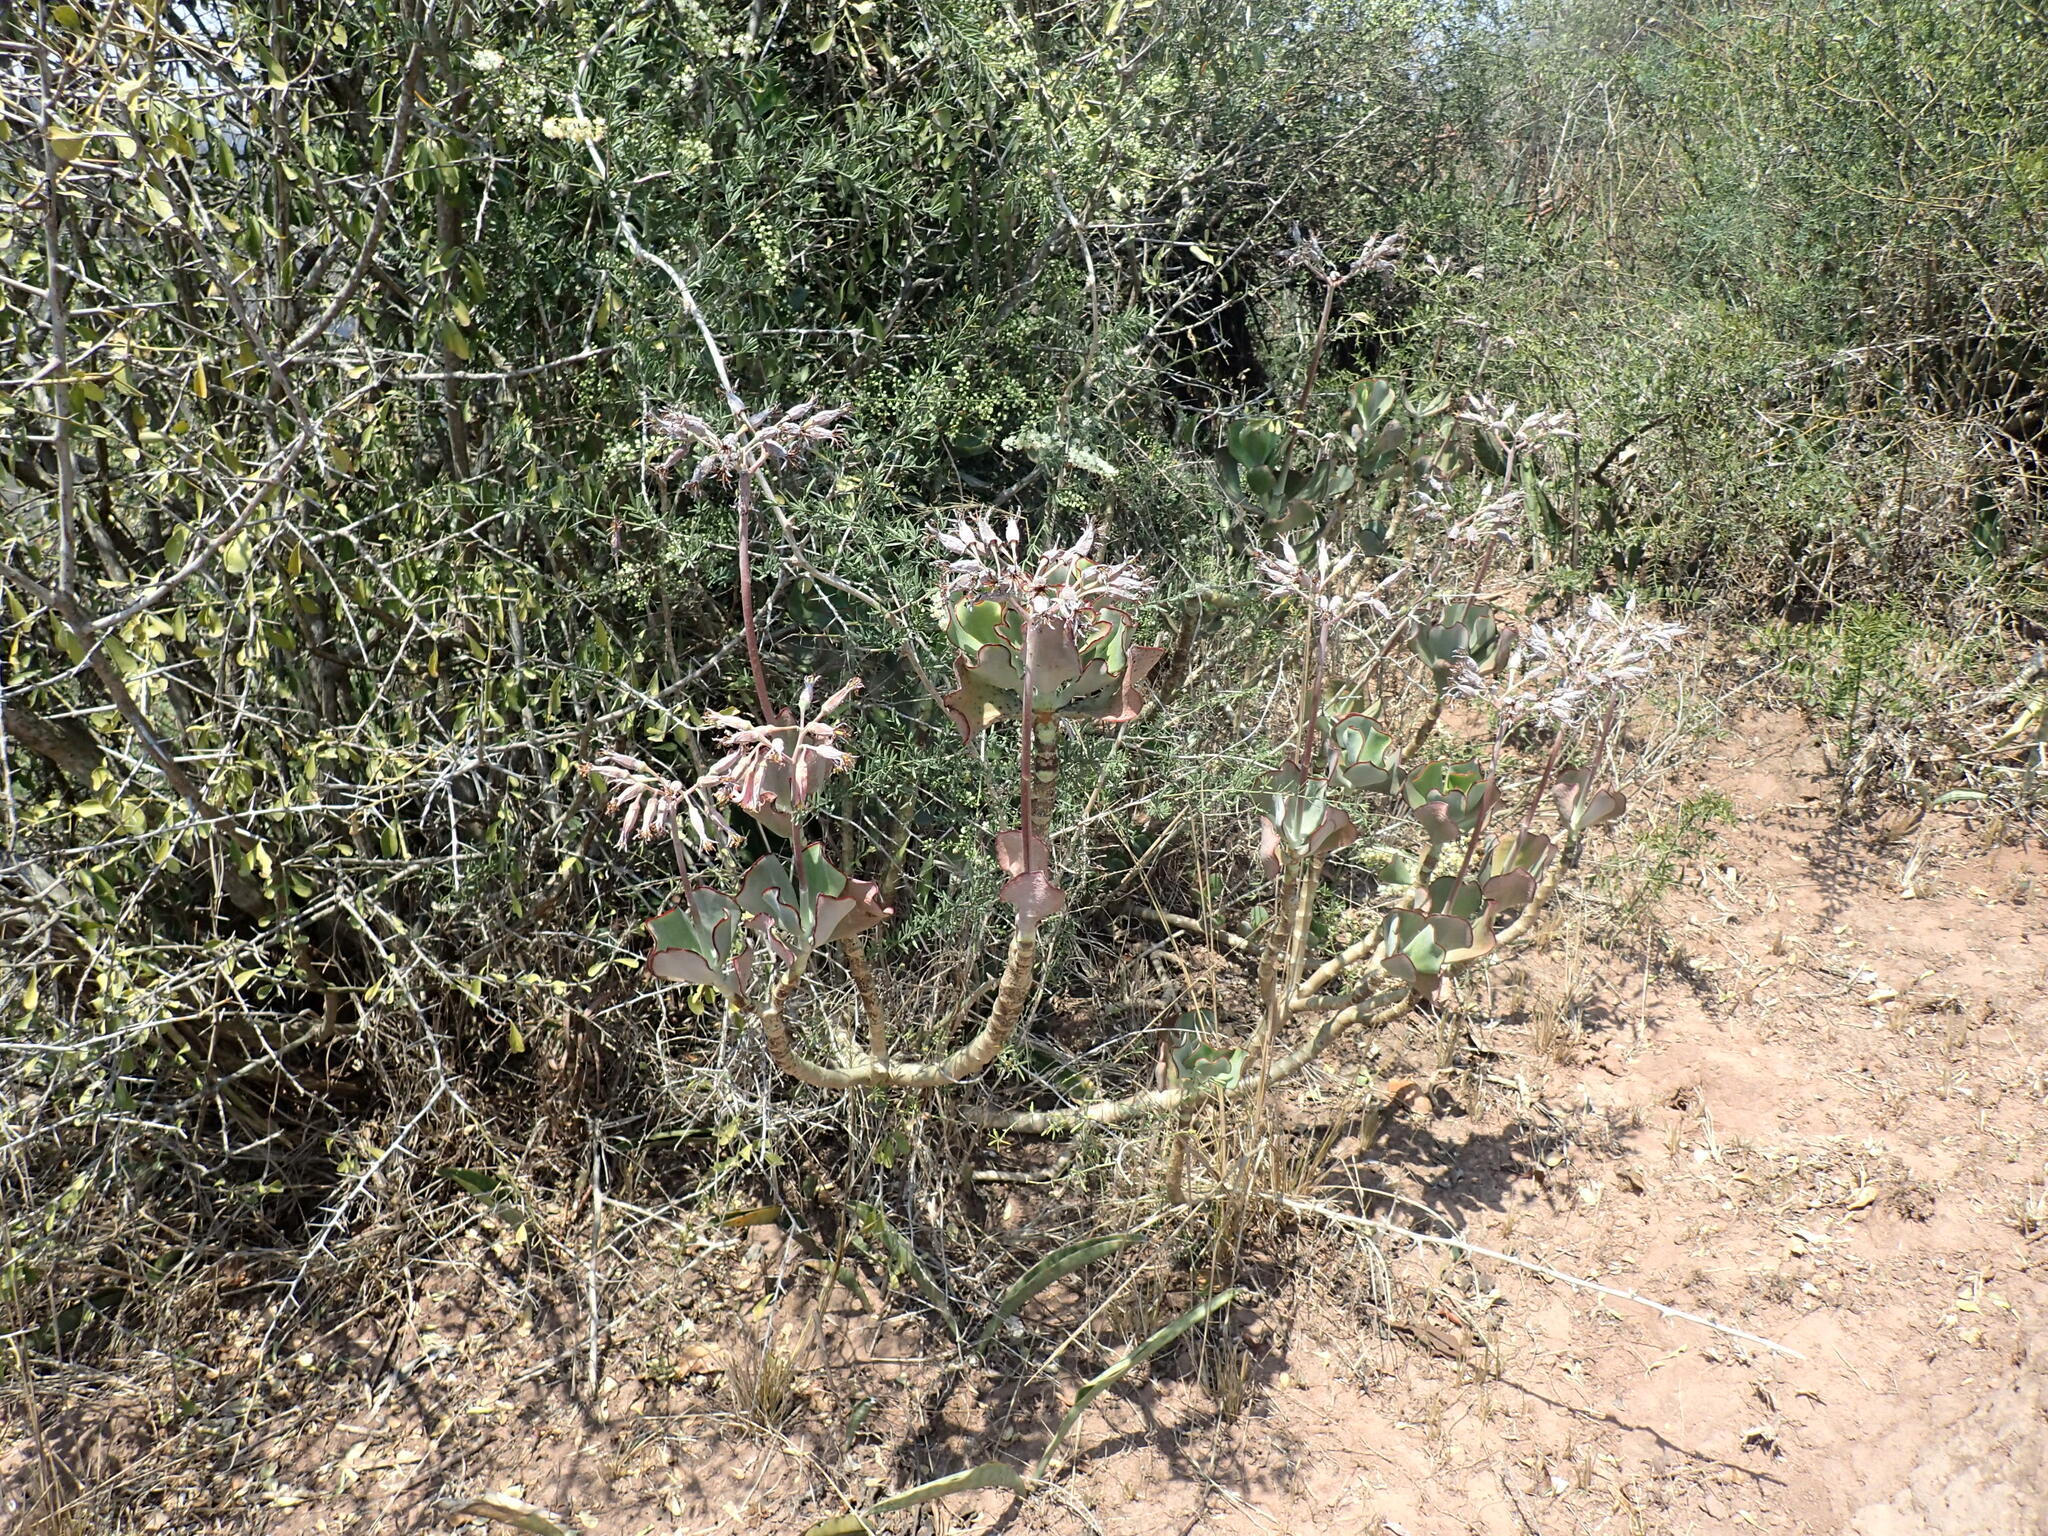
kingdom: Plantae
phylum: Tracheophyta
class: Magnoliopsida
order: Saxifragales
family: Crassulaceae
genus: Cotyledon
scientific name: Cotyledon orbiculata
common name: Pig's ear
